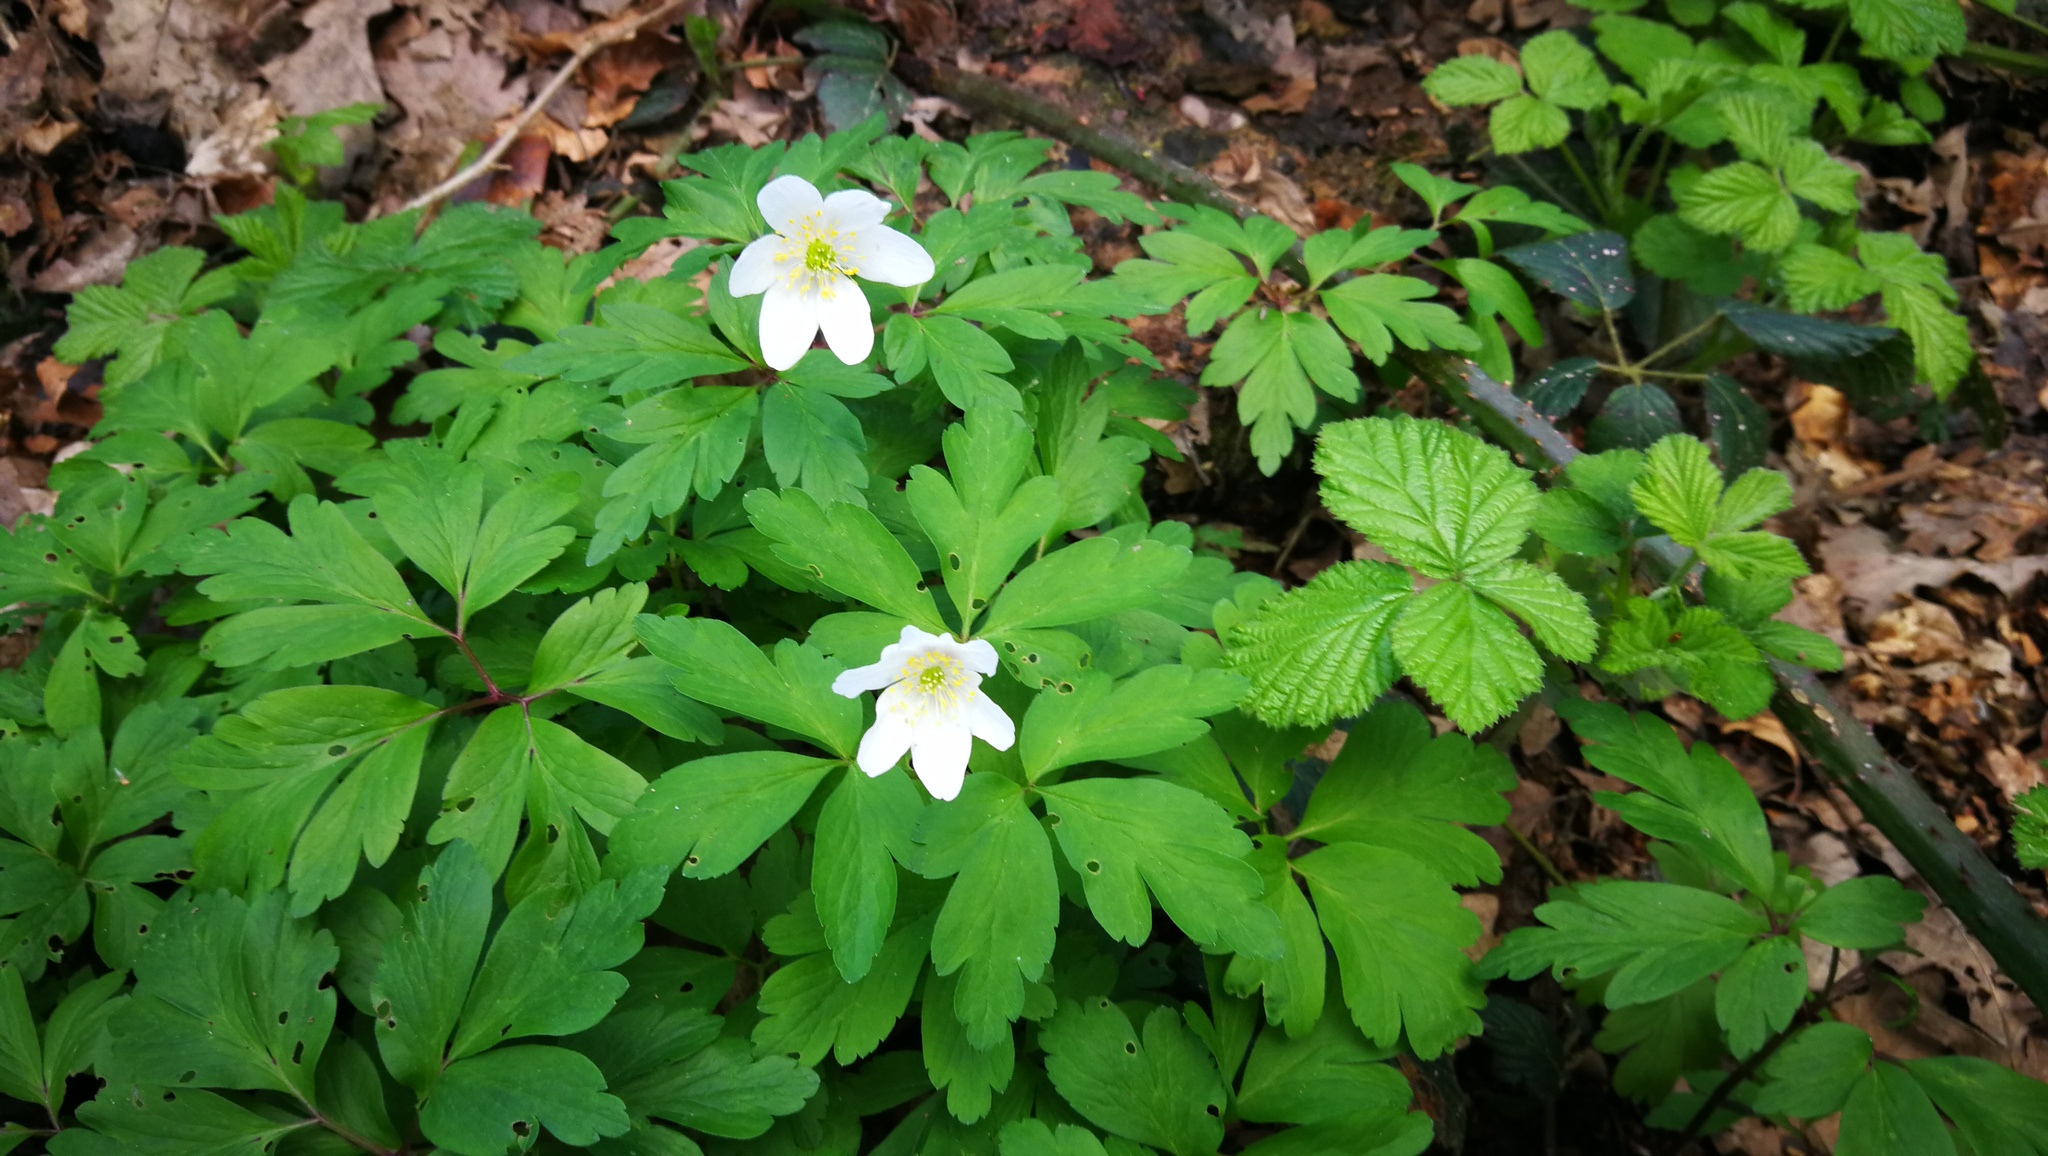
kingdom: Plantae
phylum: Tracheophyta
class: Magnoliopsida
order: Ranunculales
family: Ranunculaceae
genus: Anemone
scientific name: Anemone nemorosa
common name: Wood anemone
